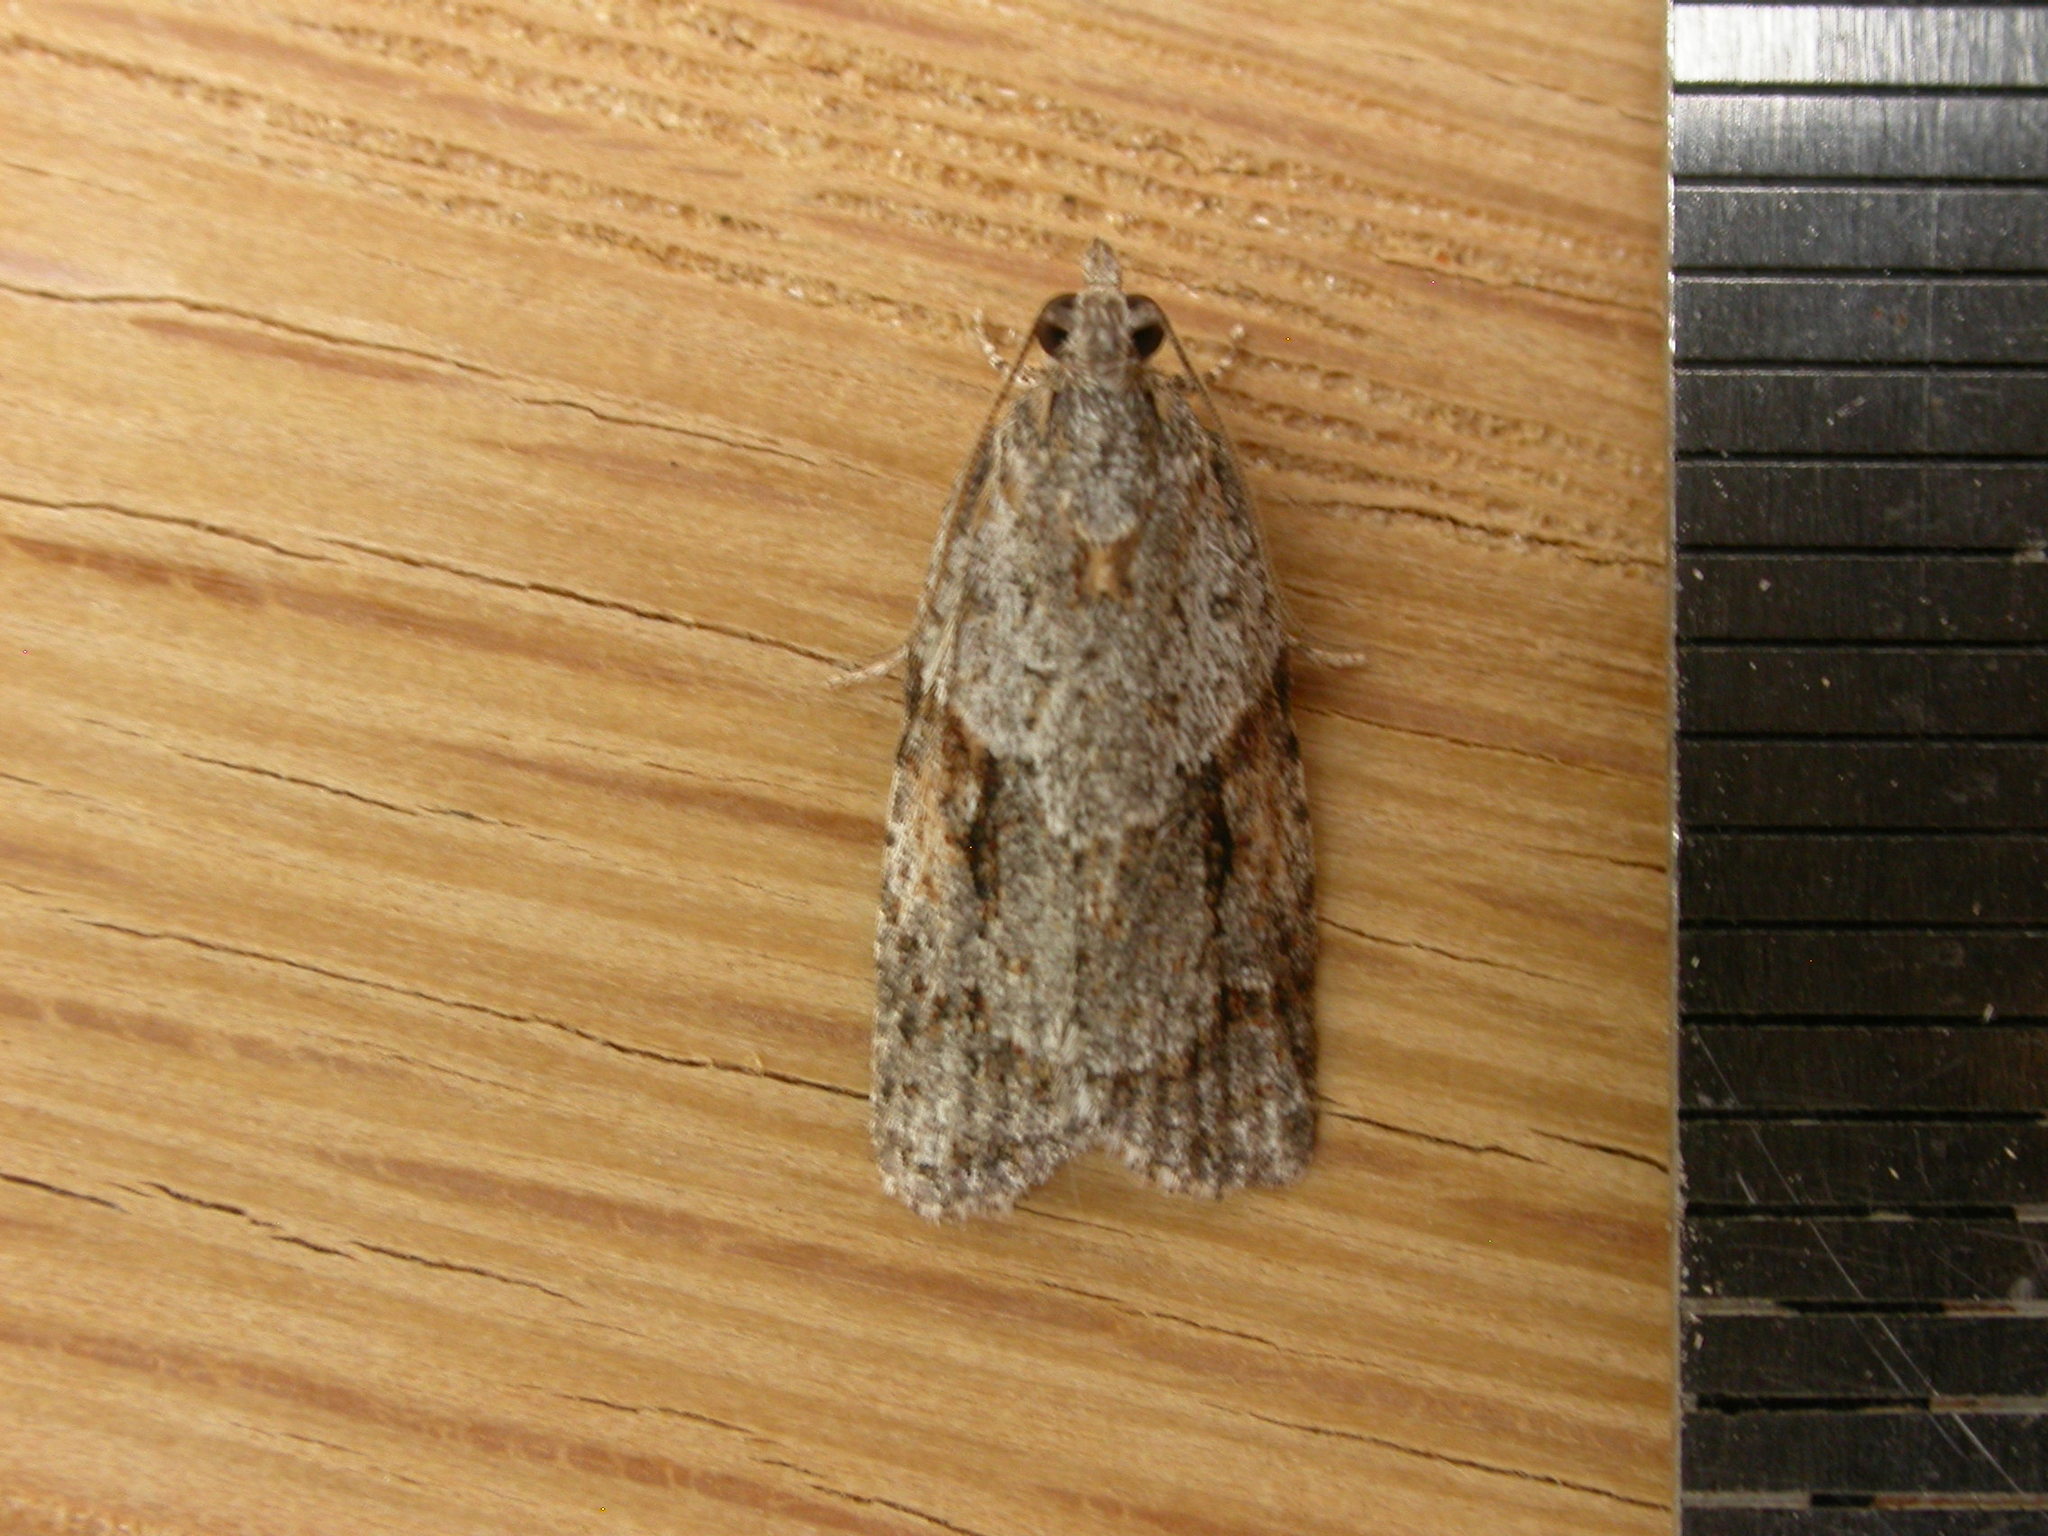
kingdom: Animalia
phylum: Arthropoda
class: Insecta
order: Lepidoptera
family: Tortricidae
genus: Acropolitis
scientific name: Acropolitis rudisana
